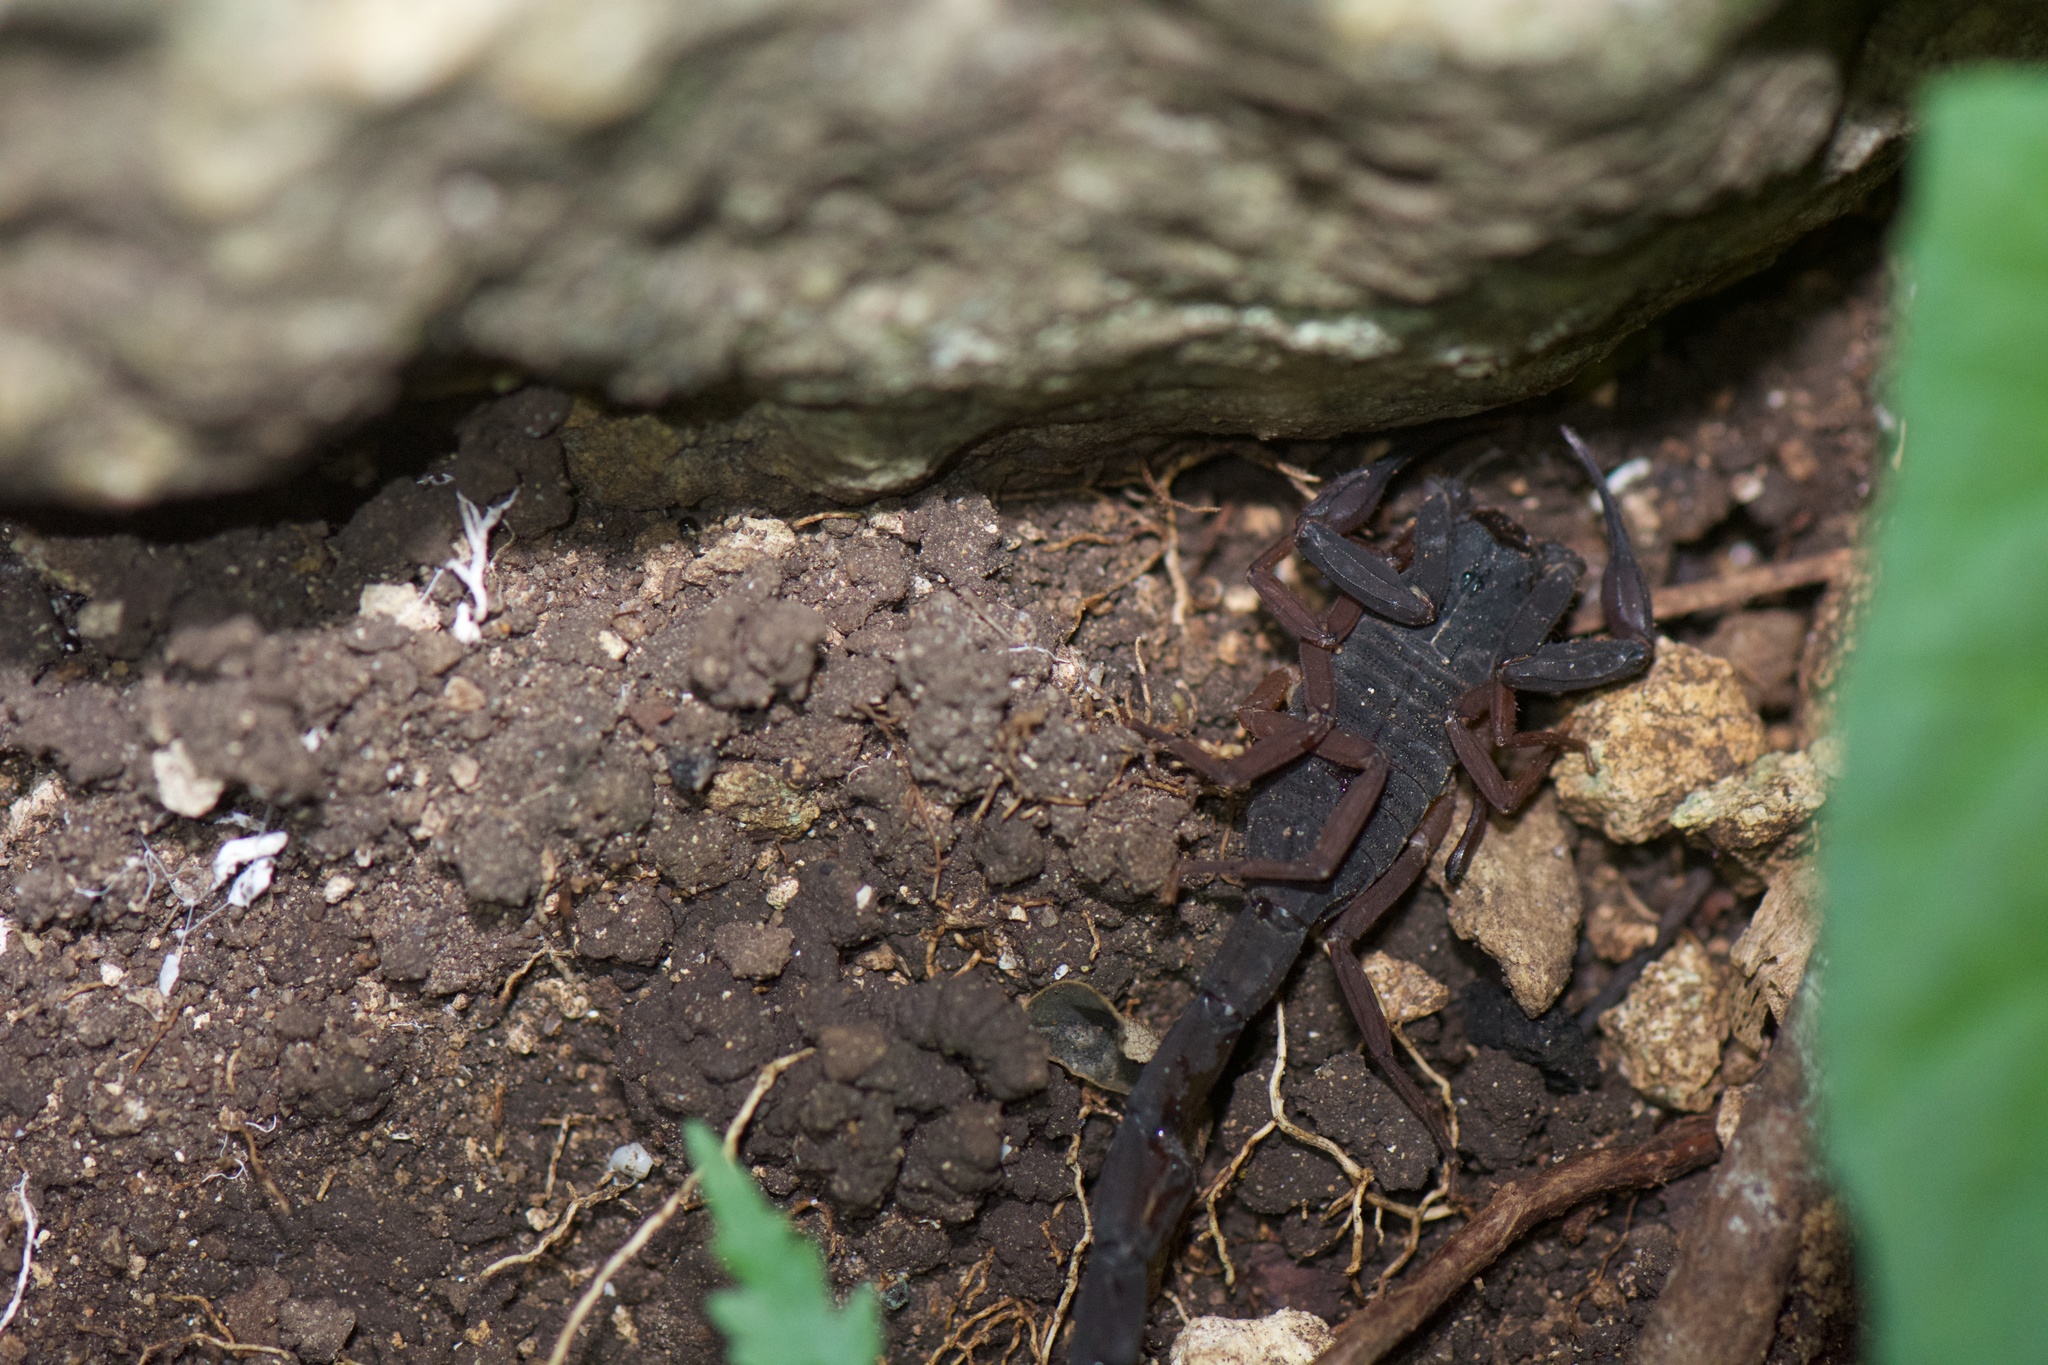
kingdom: Animalia
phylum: Arthropoda
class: Arachnida
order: Scorpiones
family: Buthidae
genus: Centruroides
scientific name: Centruroides gracilis
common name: Scorpions
